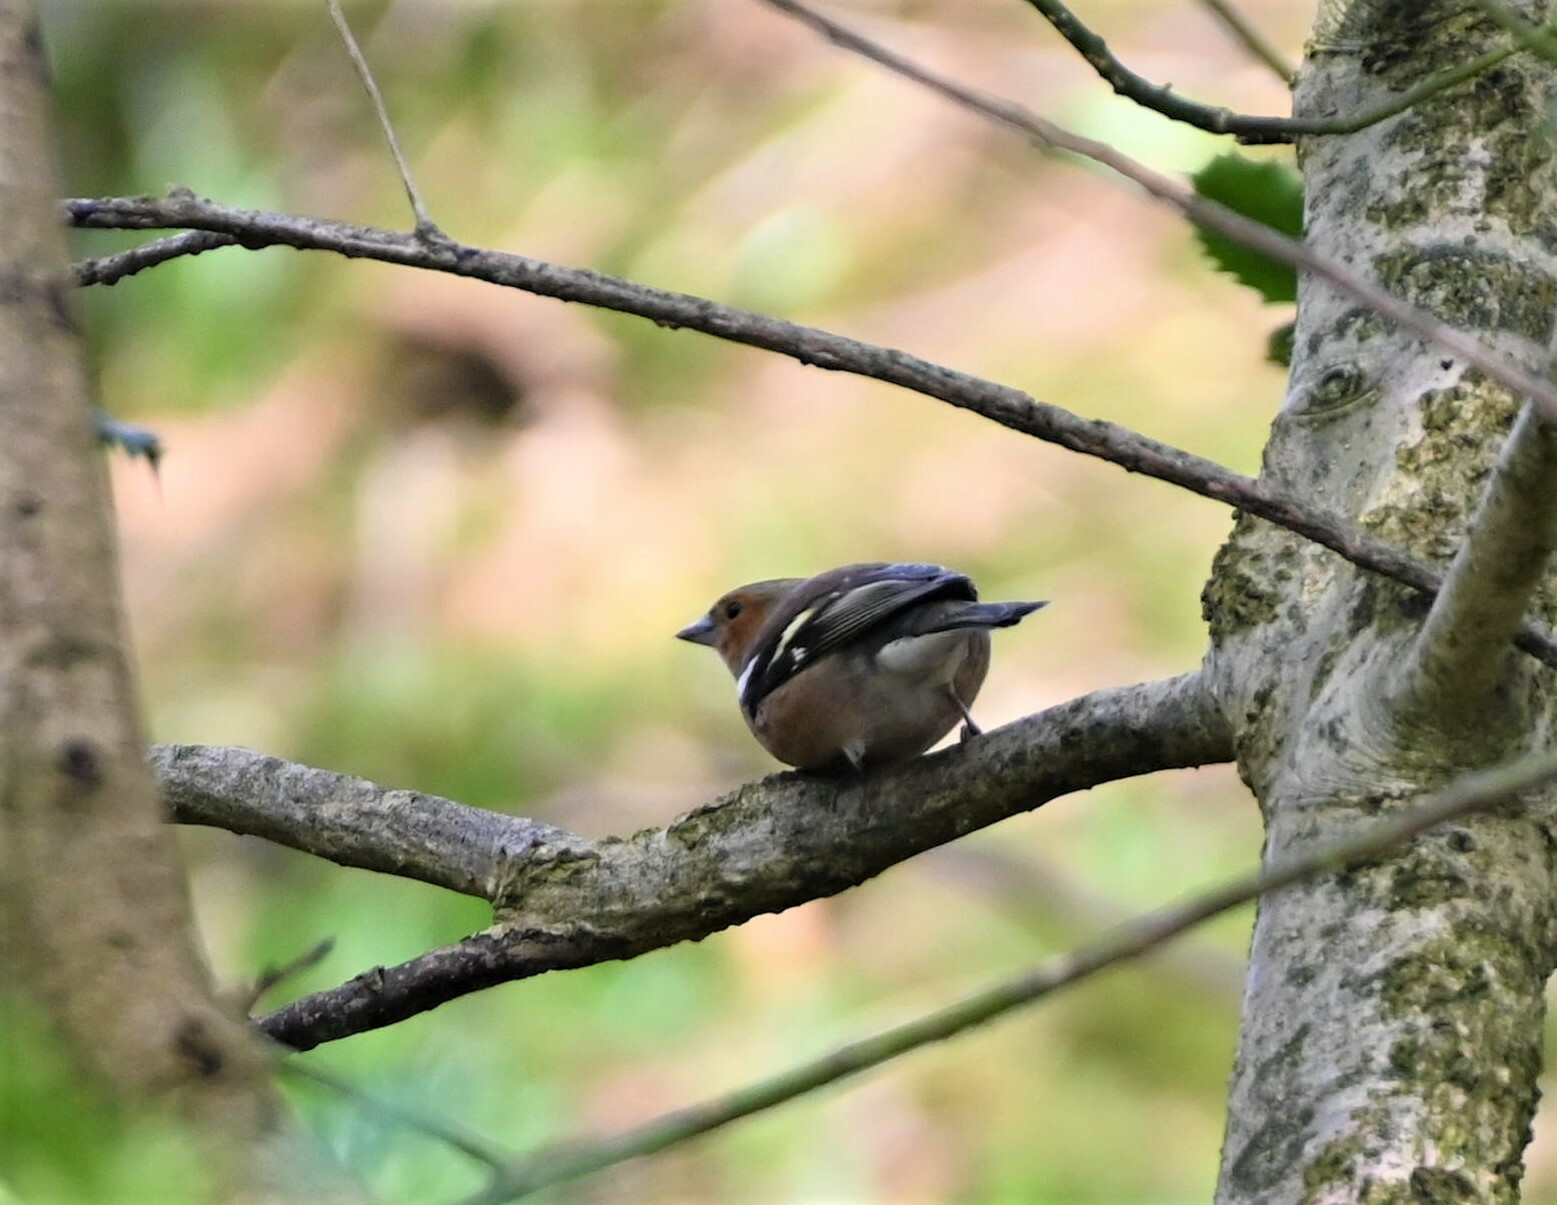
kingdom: Animalia
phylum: Chordata
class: Aves
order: Passeriformes
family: Fringillidae
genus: Fringilla
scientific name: Fringilla coelebs
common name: Common chaffinch
